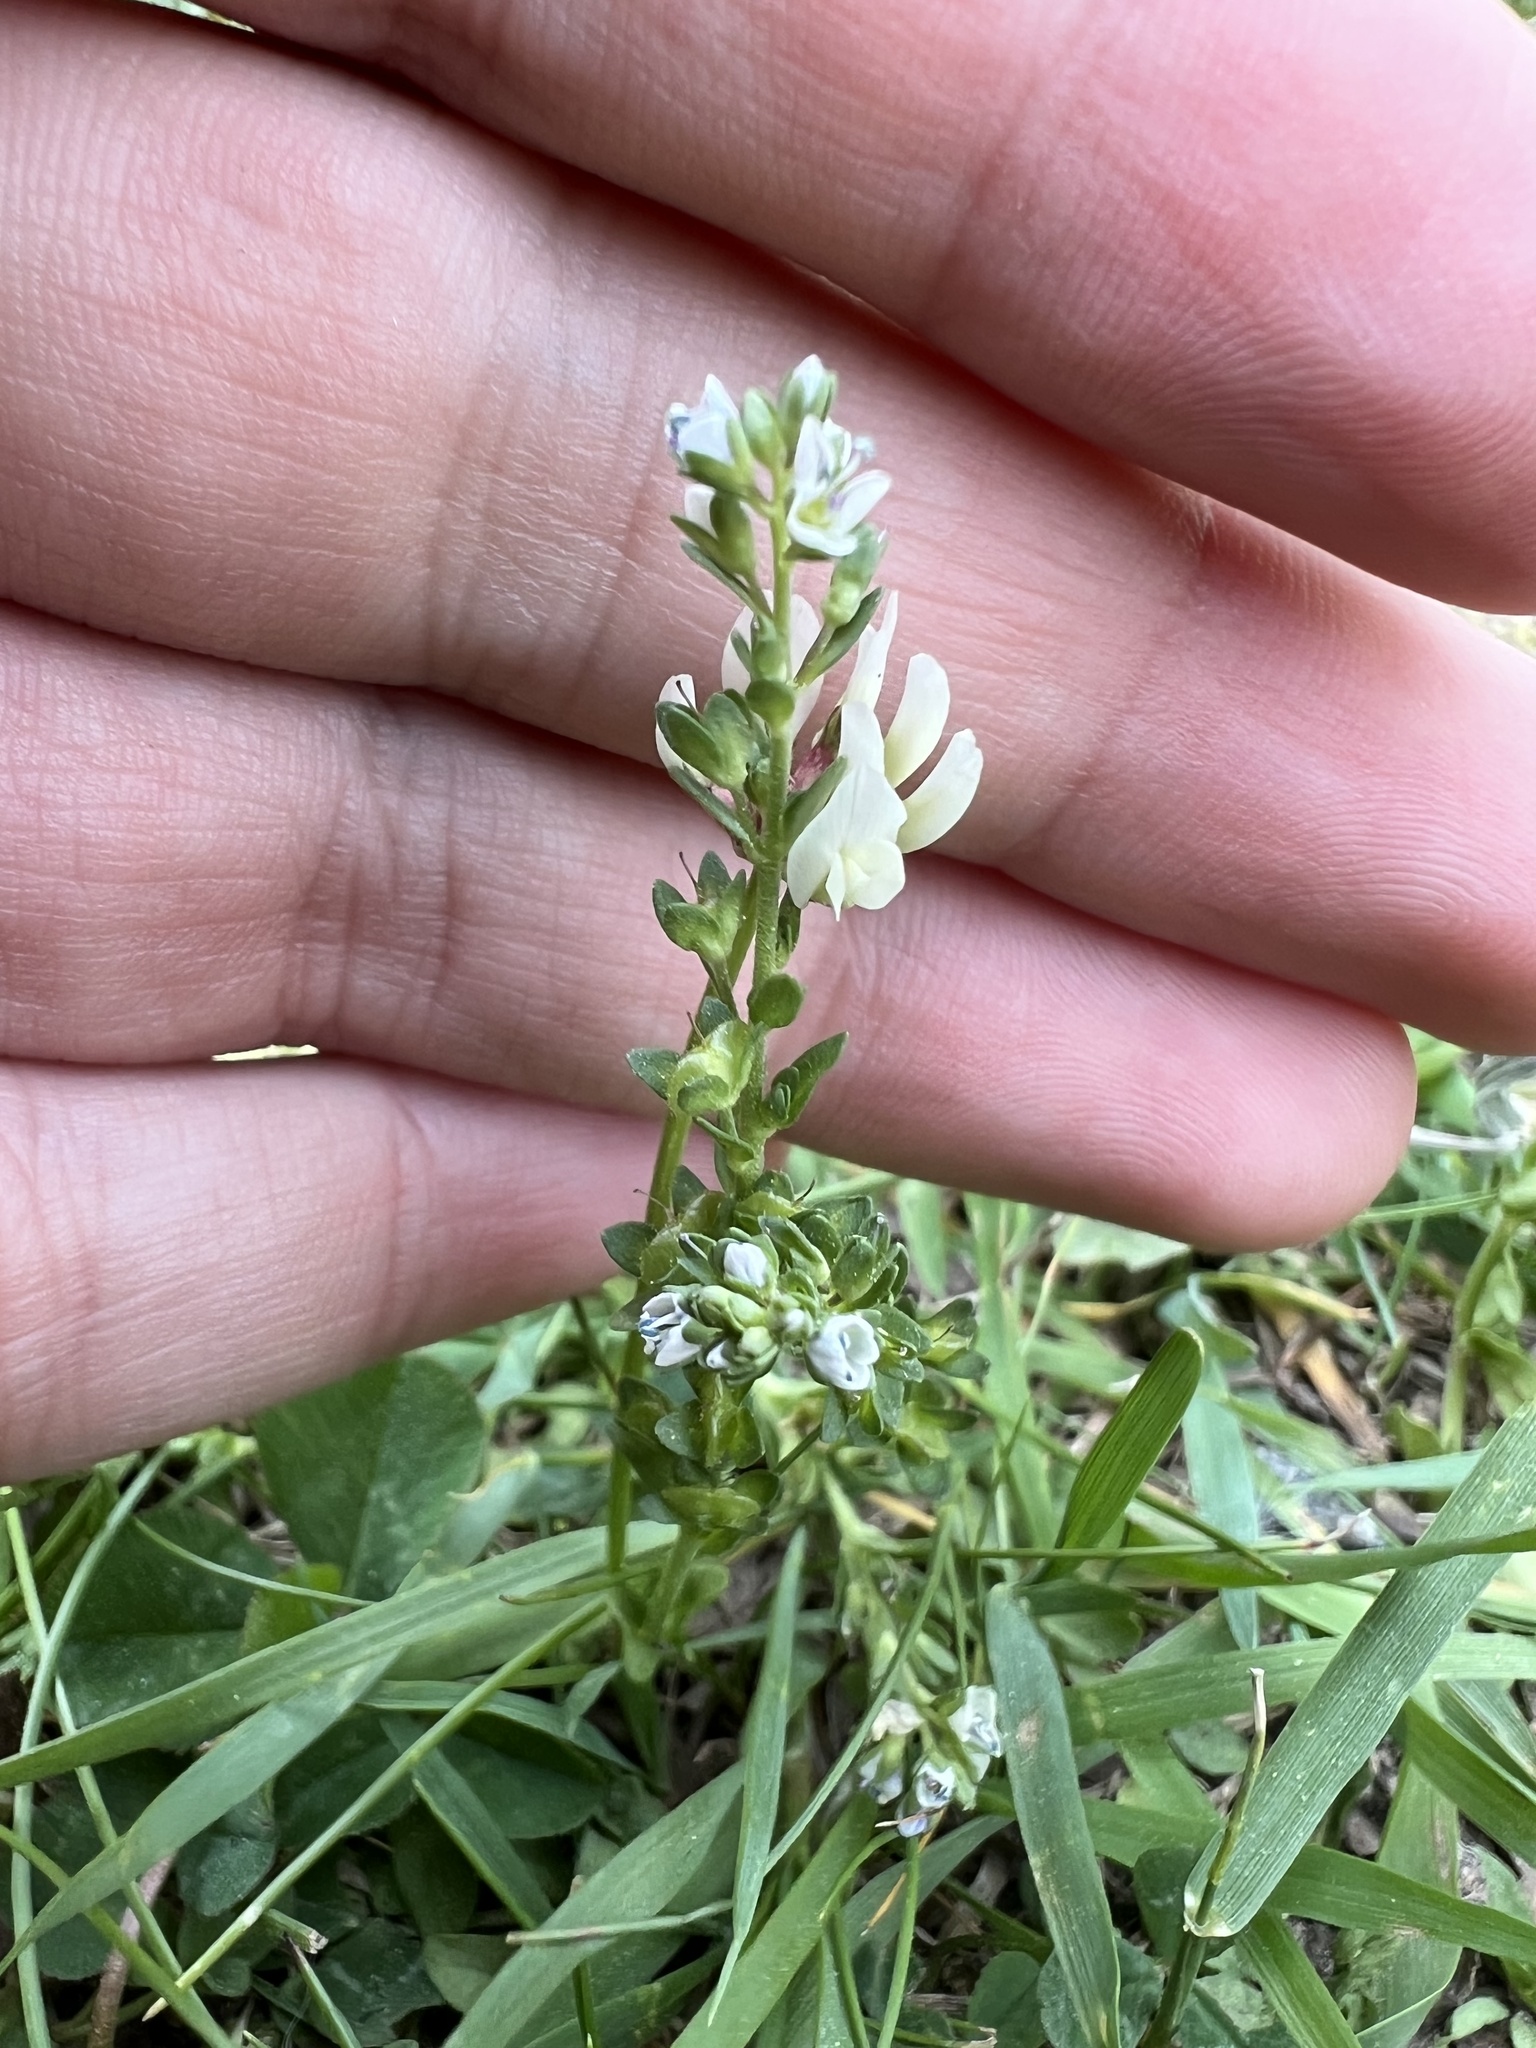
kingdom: Plantae
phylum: Tracheophyta
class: Magnoliopsida
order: Lamiales
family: Plantaginaceae
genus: Veronica
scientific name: Veronica serpyllifolia
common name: Thyme-leaved speedwell
